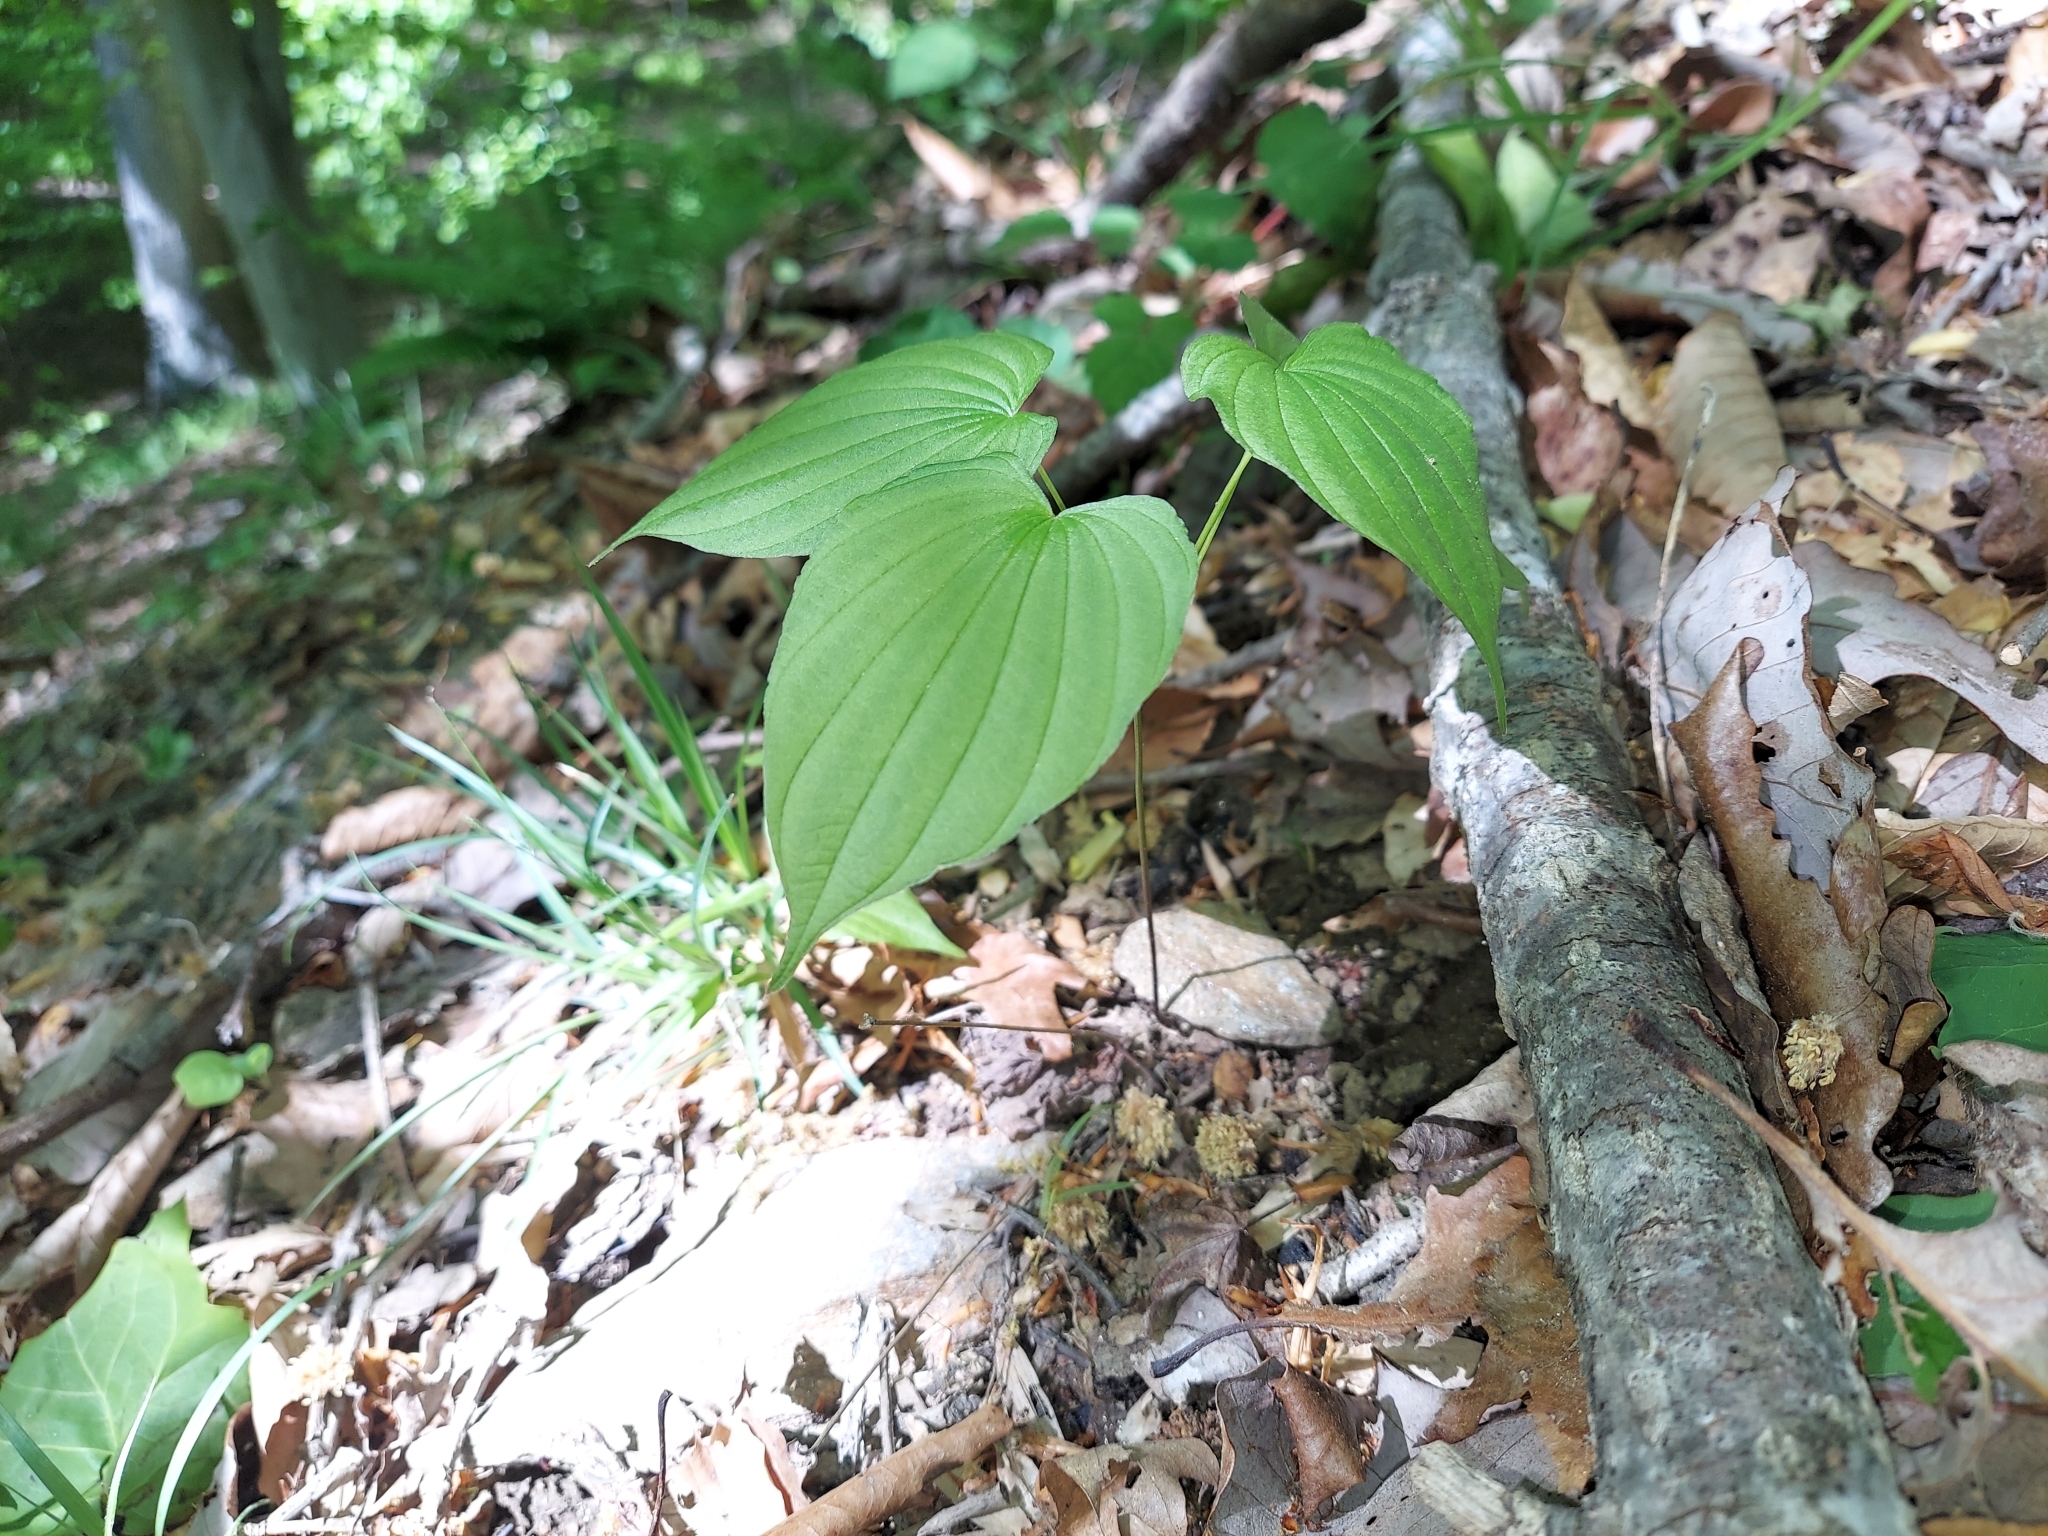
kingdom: Plantae
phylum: Tracheophyta
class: Liliopsida
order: Dioscoreales
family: Dioscoreaceae
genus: Dioscorea
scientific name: Dioscorea villosa
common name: Wild yam
